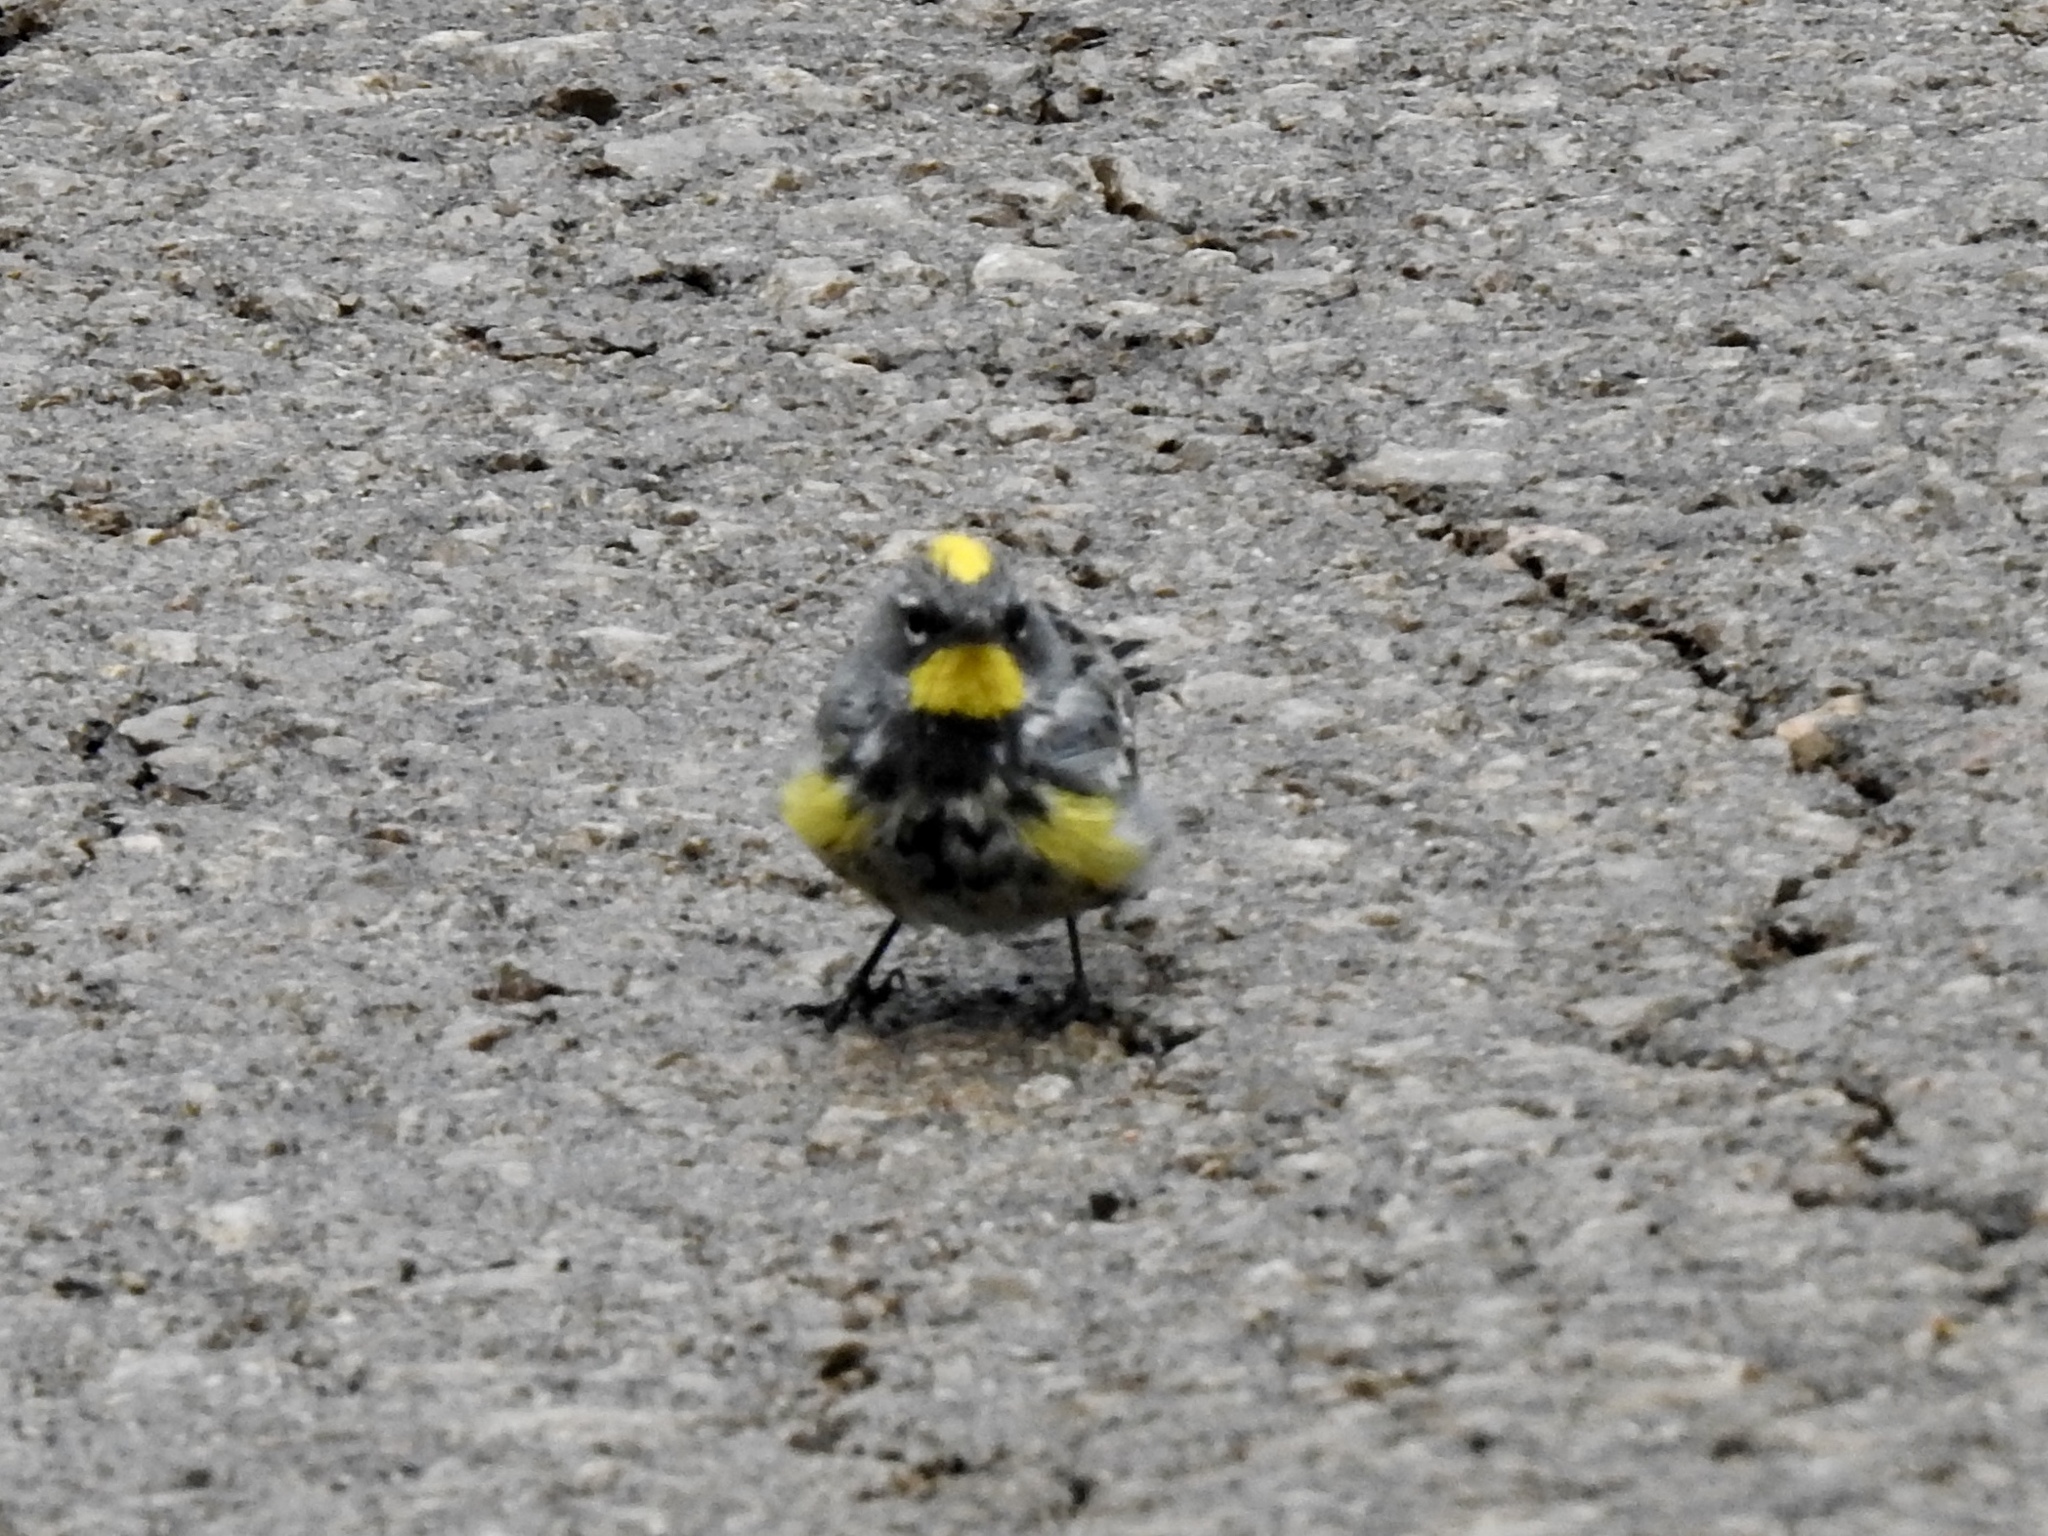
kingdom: Animalia
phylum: Chordata
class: Aves
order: Passeriformes
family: Parulidae
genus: Setophaga
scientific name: Setophaga auduboni
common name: Audubon's warbler
